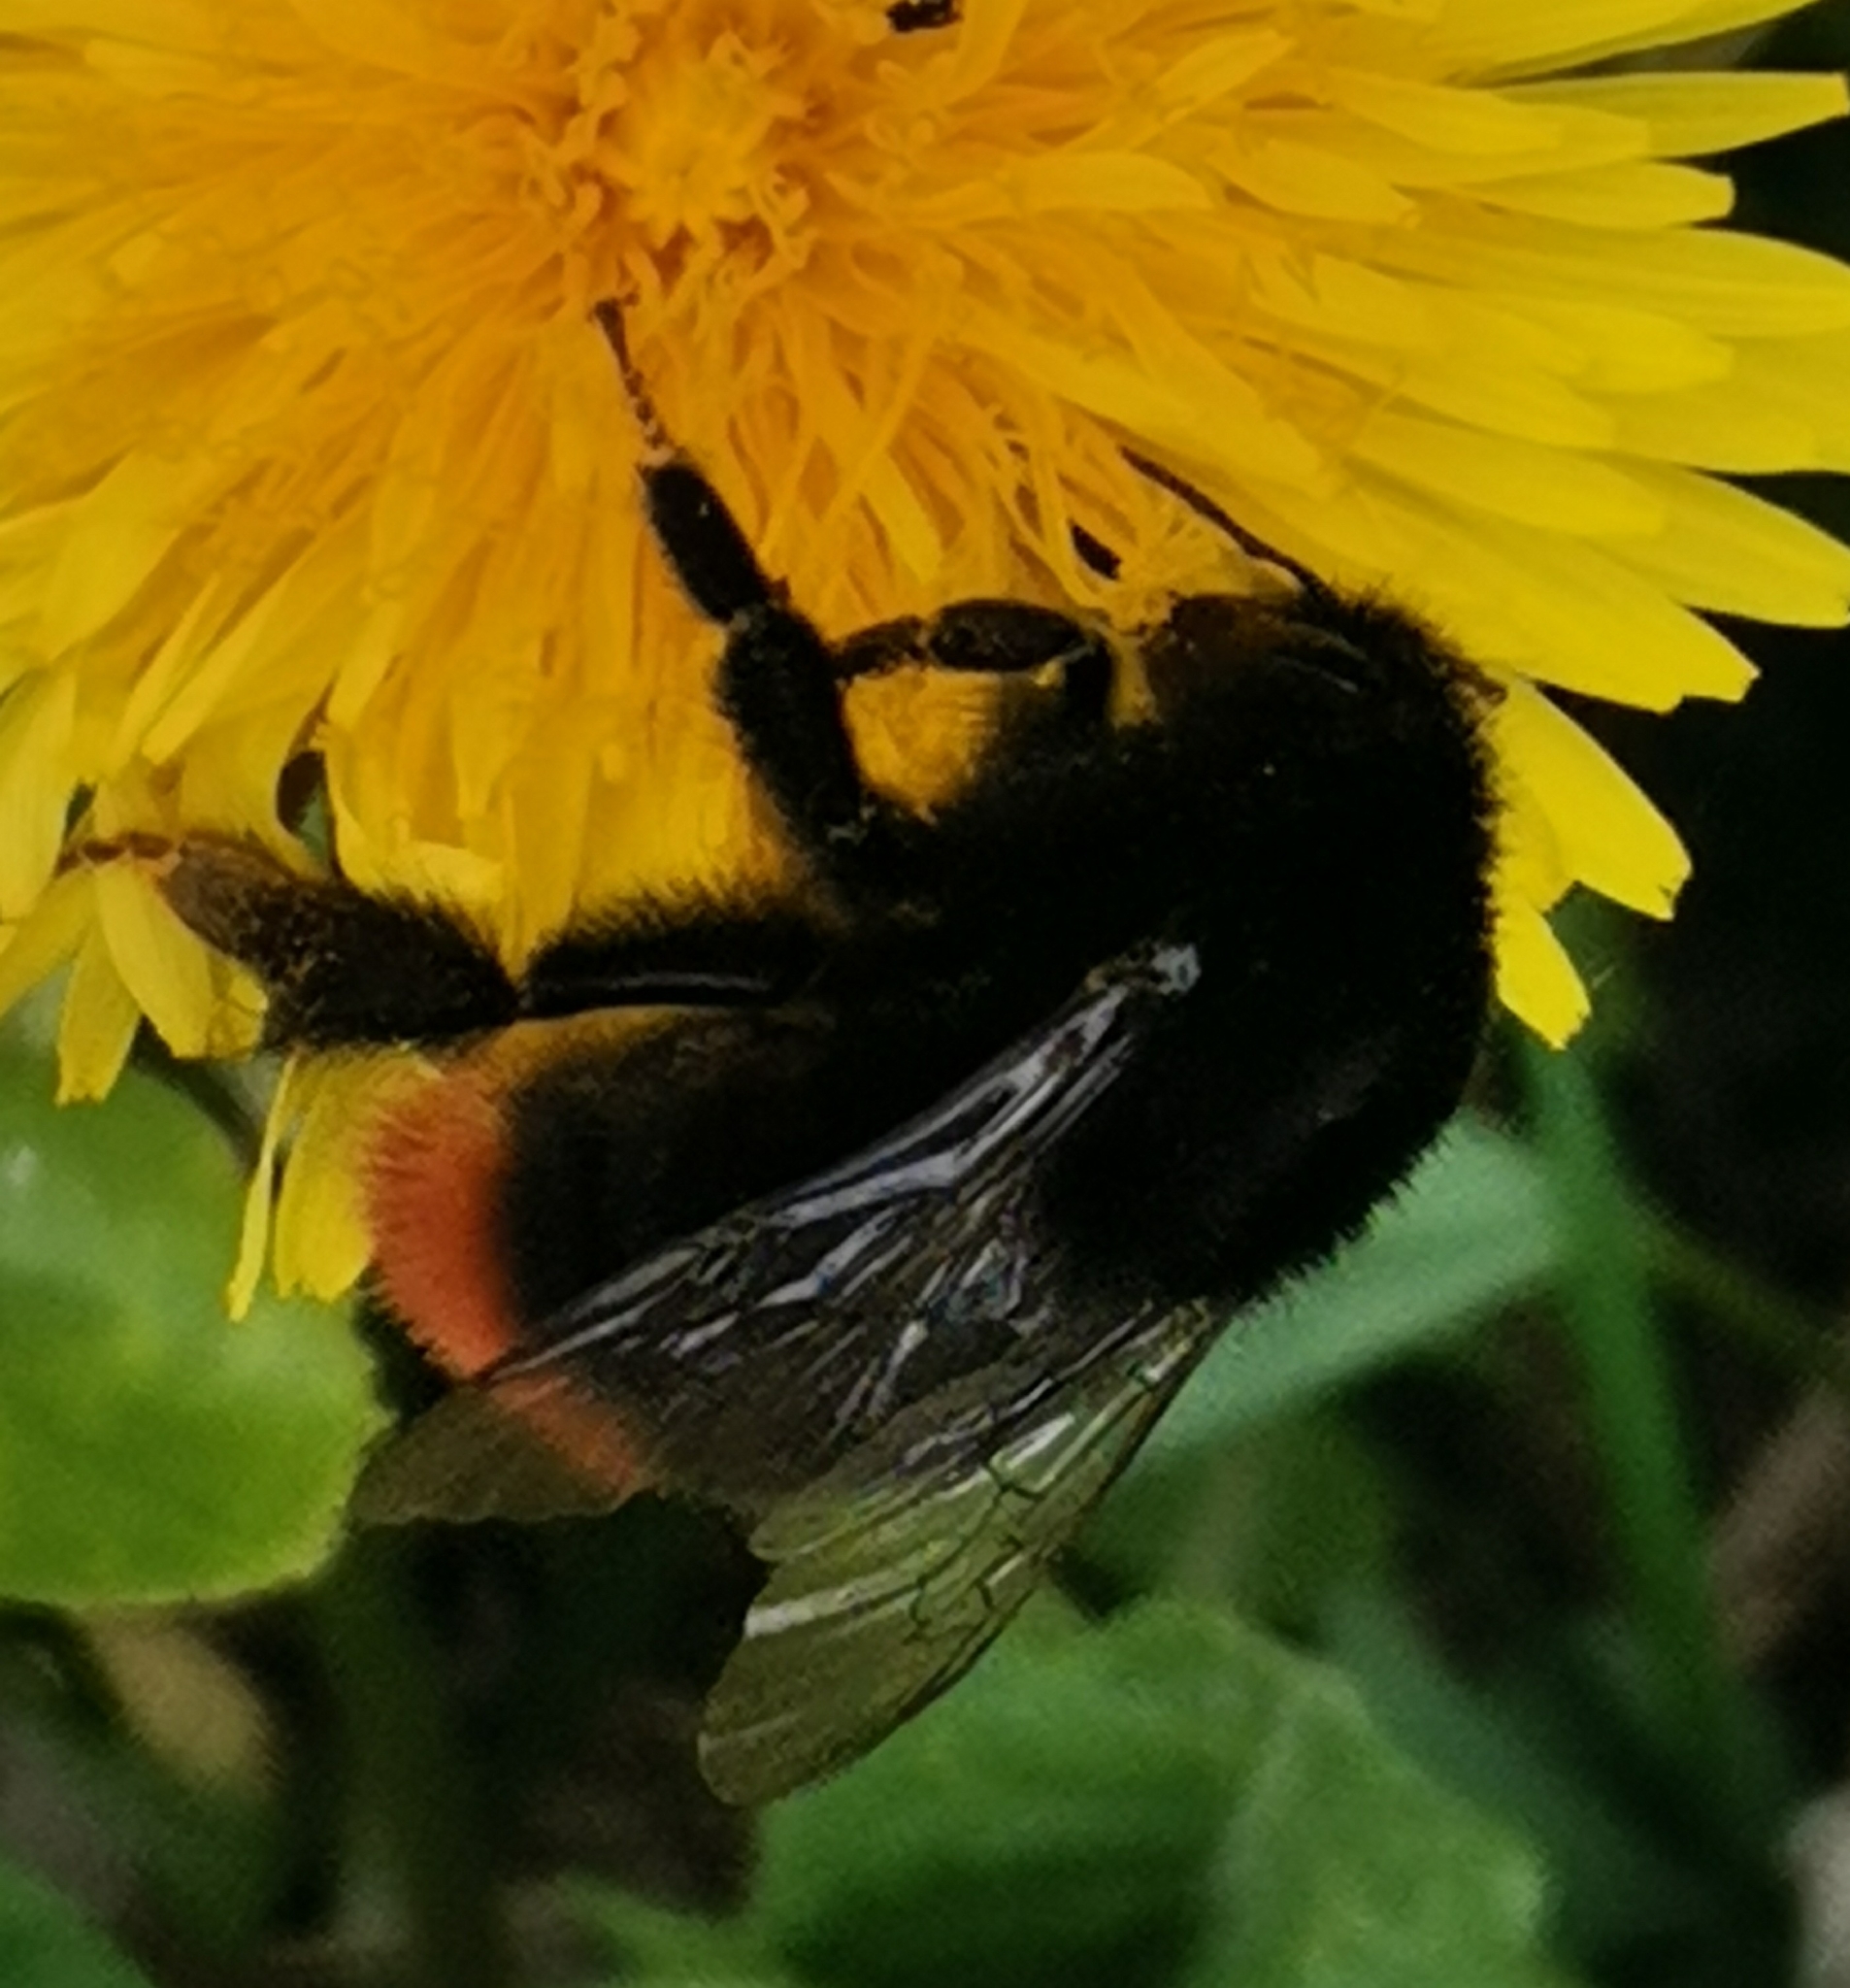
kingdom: Animalia
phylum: Arthropoda
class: Insecta
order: Hymenoptera
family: Apidae
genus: Bombus
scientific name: Bombus lapidarius
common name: Large red-tailed humble-bee
